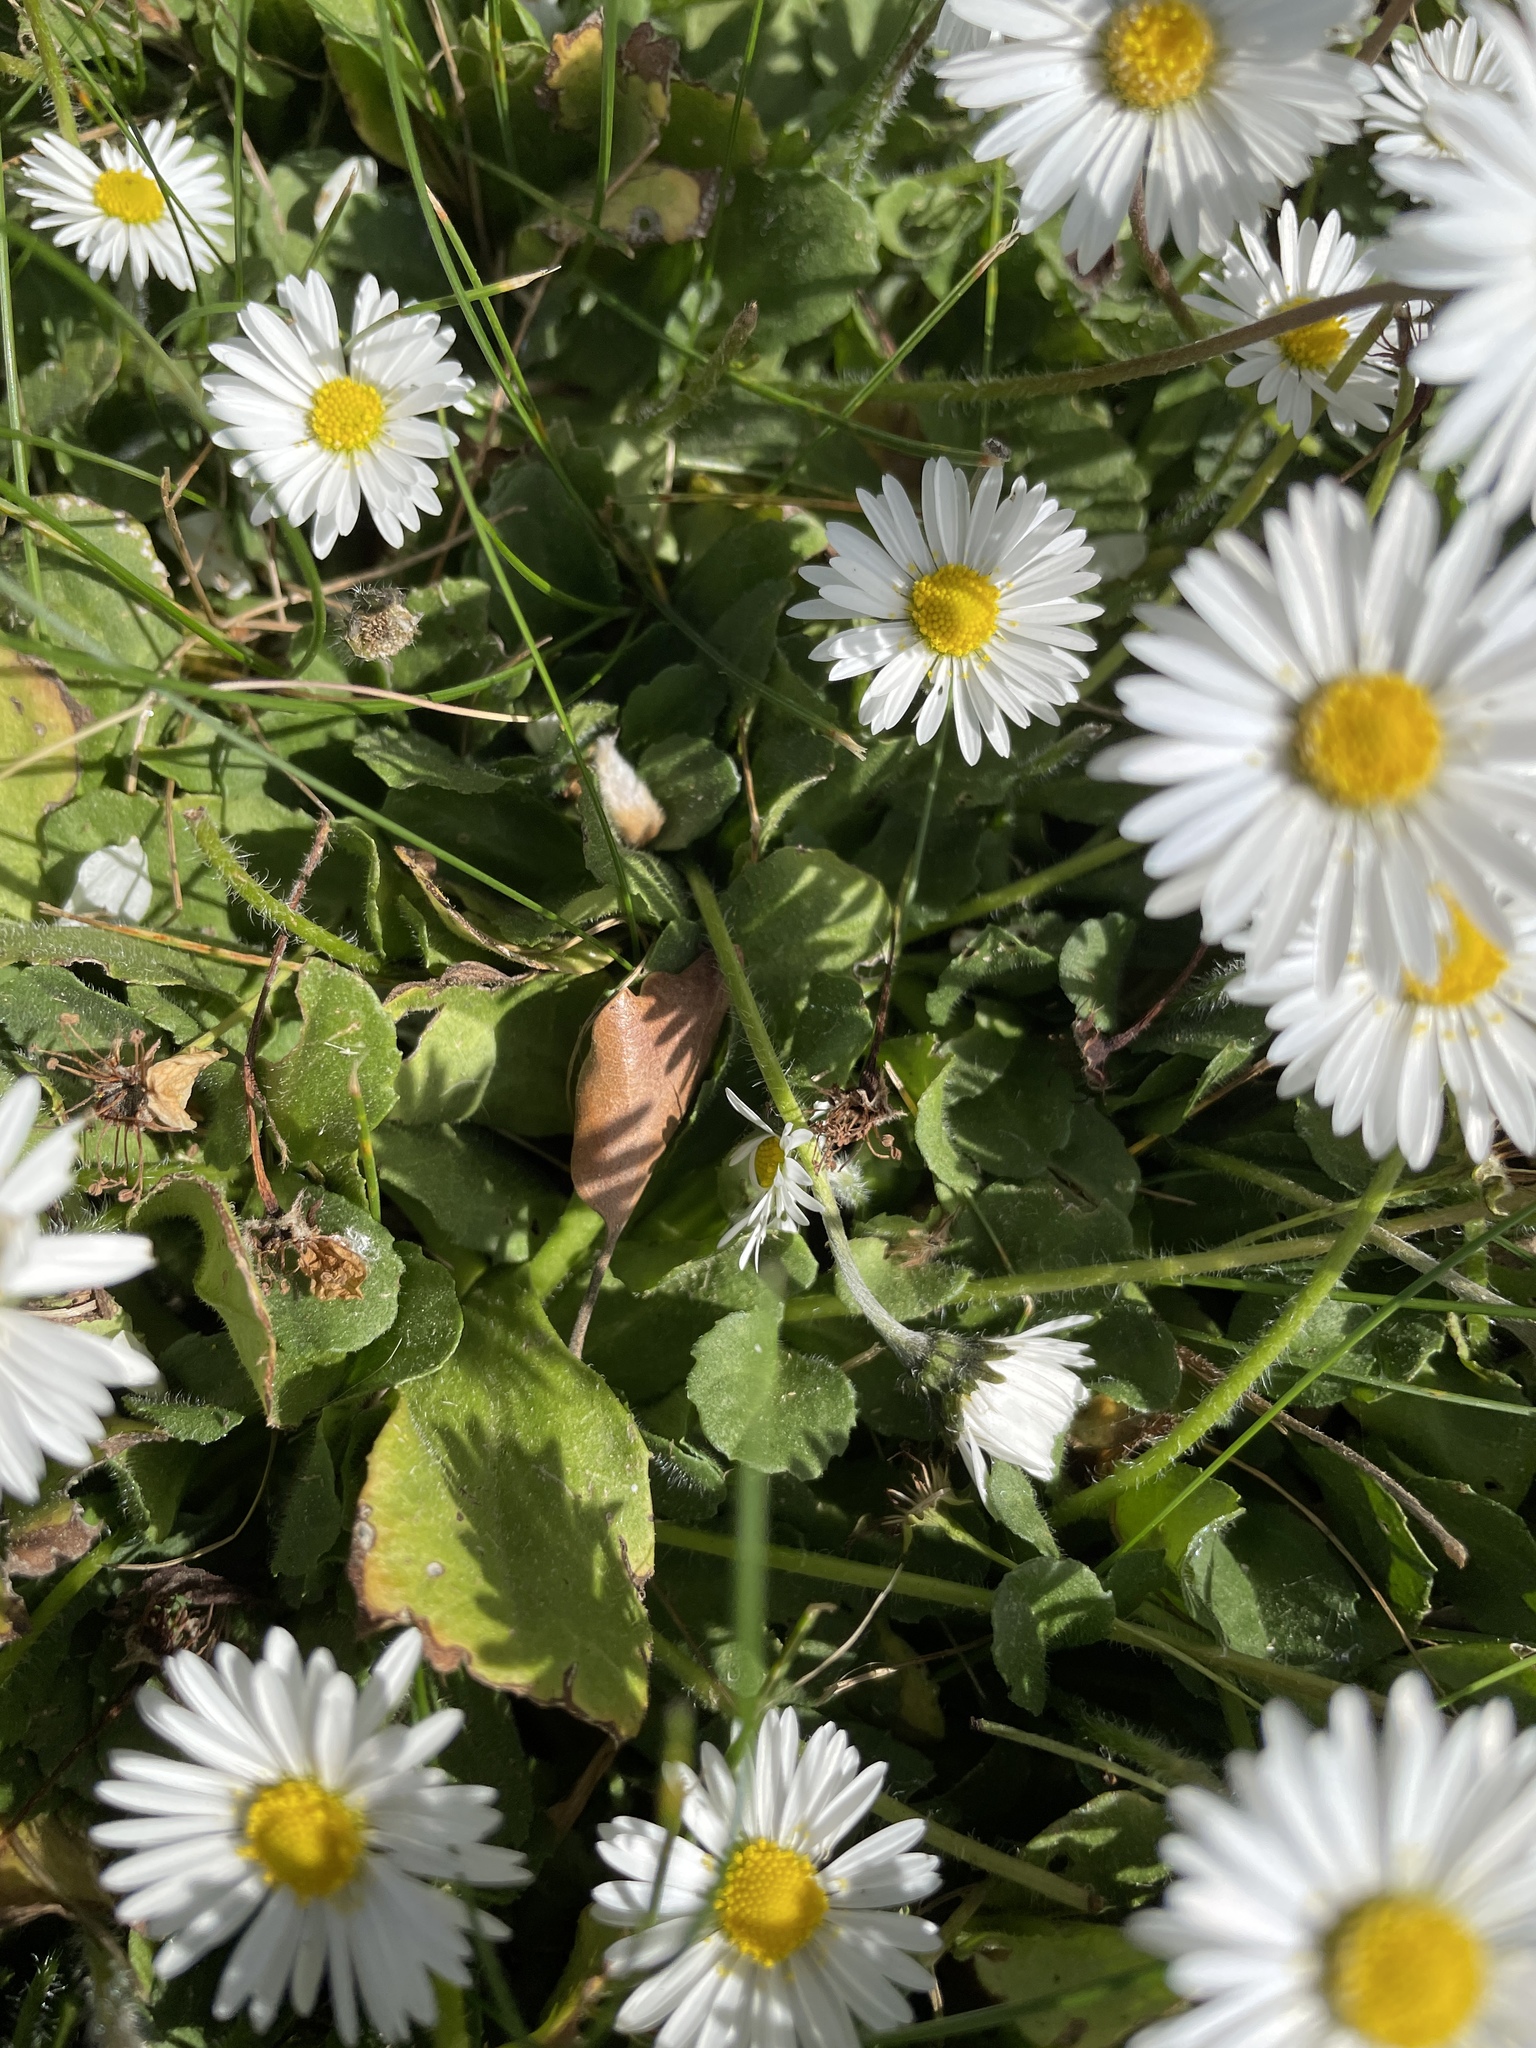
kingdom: Plantae
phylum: Tracheophyta
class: Magnoliopsida
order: Asterales
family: Asteraceae
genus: Bellis
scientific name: Bellis perennis
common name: Lawndaisy
